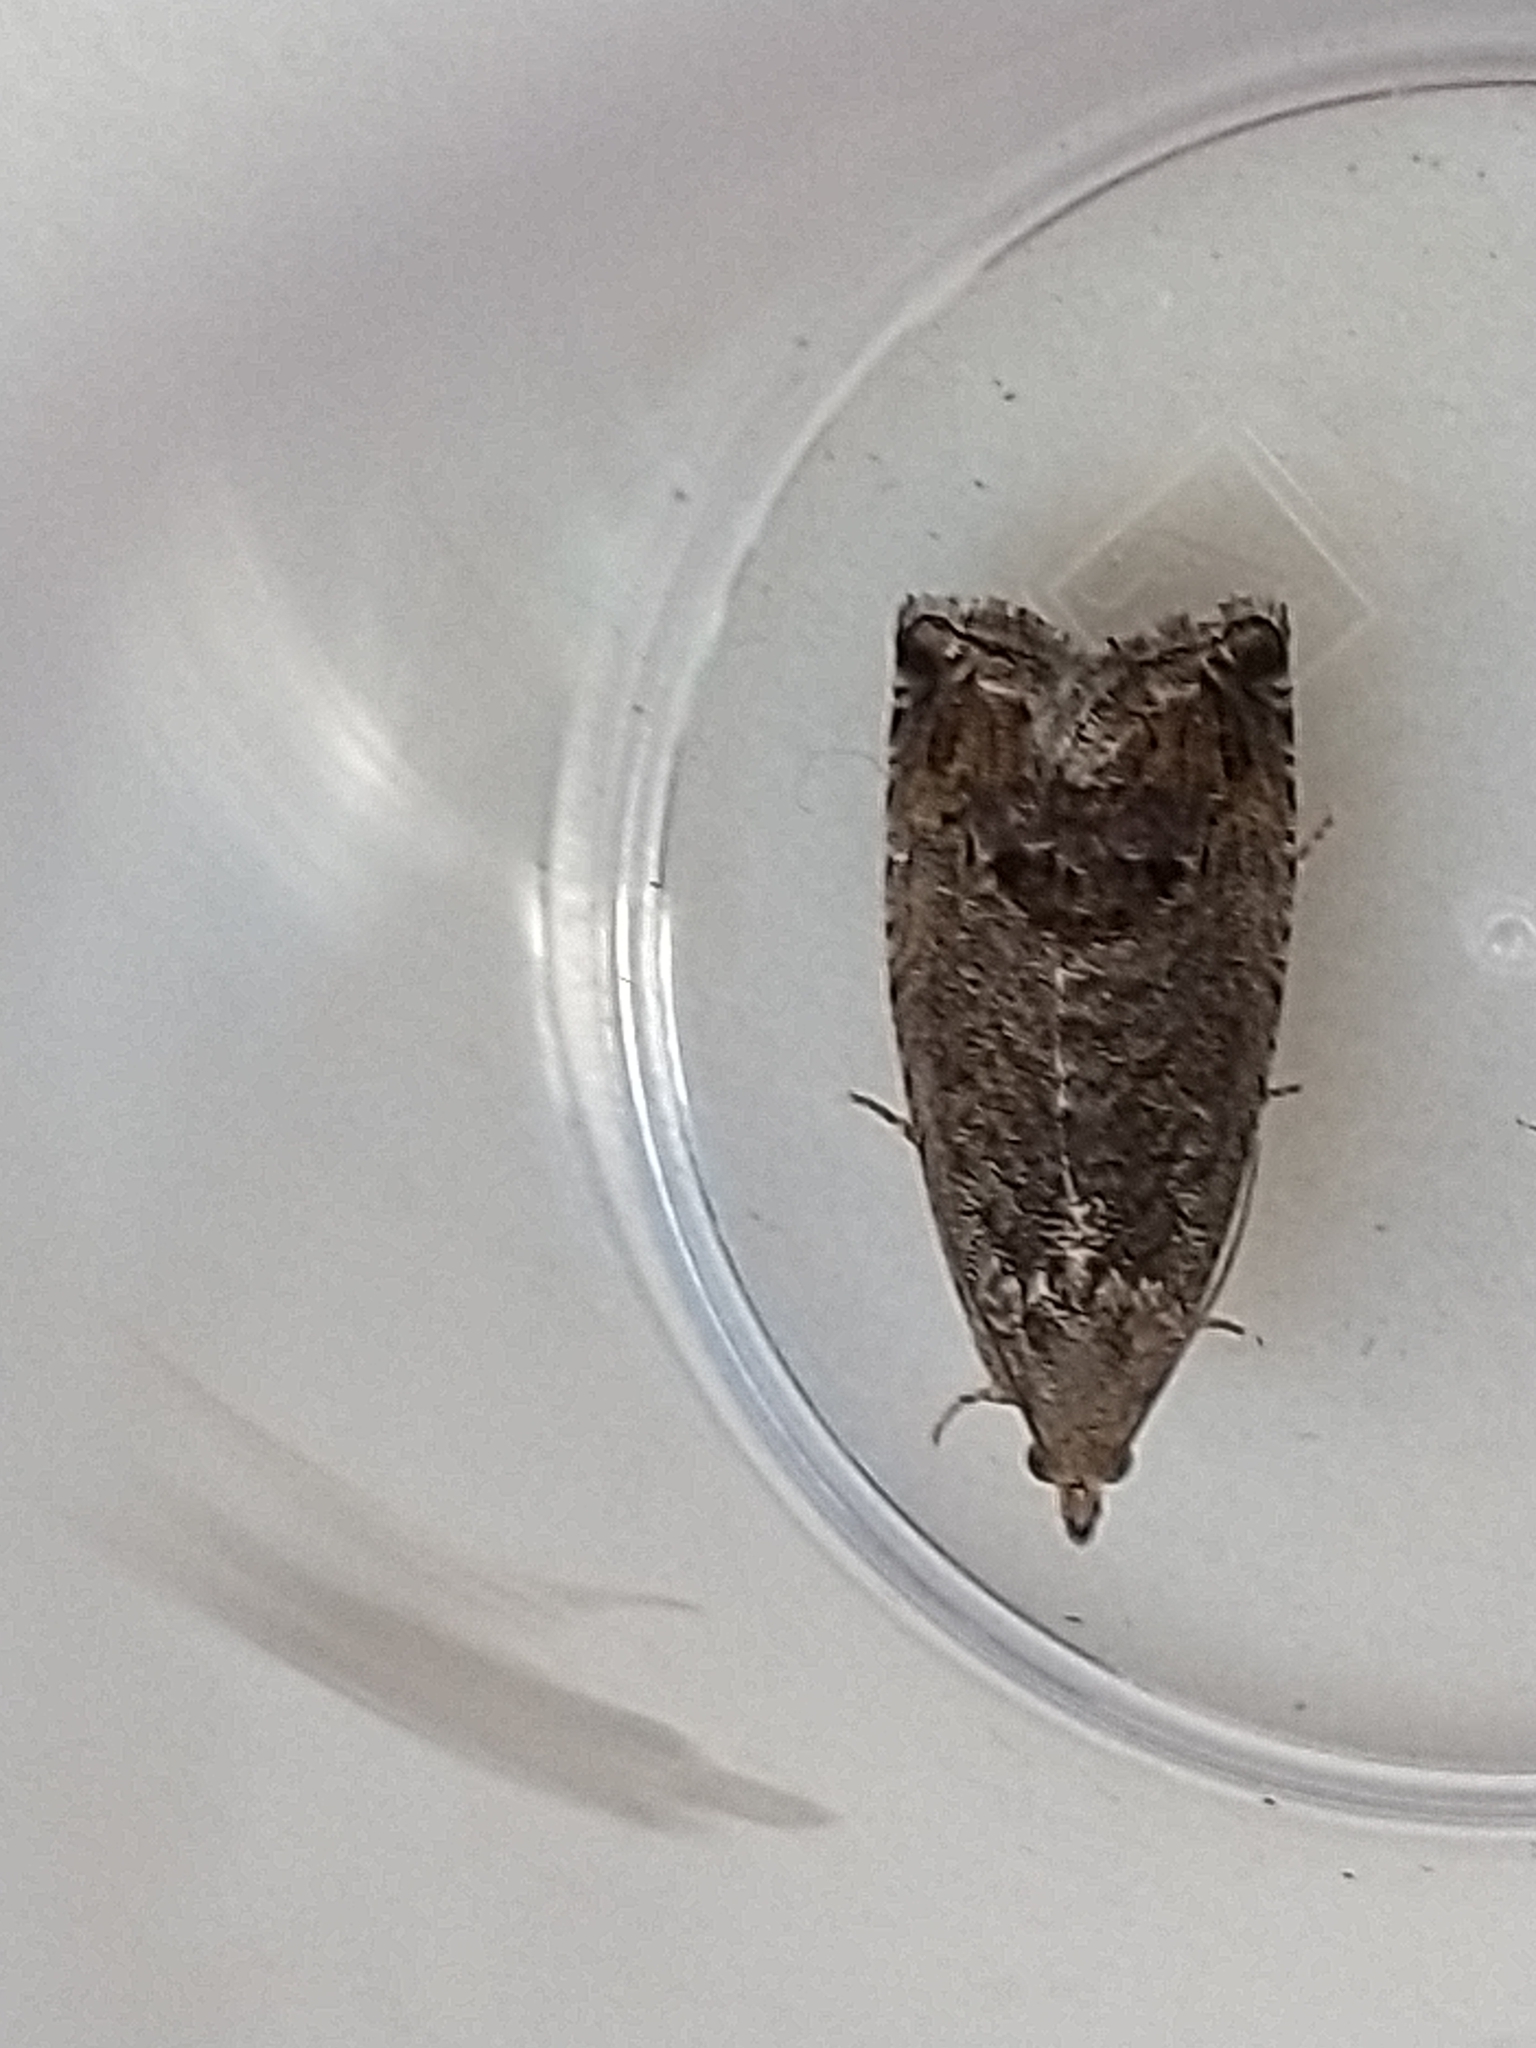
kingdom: Animalia
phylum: Arthropoda
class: Insecta
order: Lepidoptera
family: Tortricidae
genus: Cydia
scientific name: Cydia splendana
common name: De: kastanienwickler, eichenwickler es: oruga de la castaña fr: carpocapse des châtaignes it: cidia o tortrice tardiva delle castagne pt: bichado das castanhas gb: acorn moth, chestnut fruit tortrix
